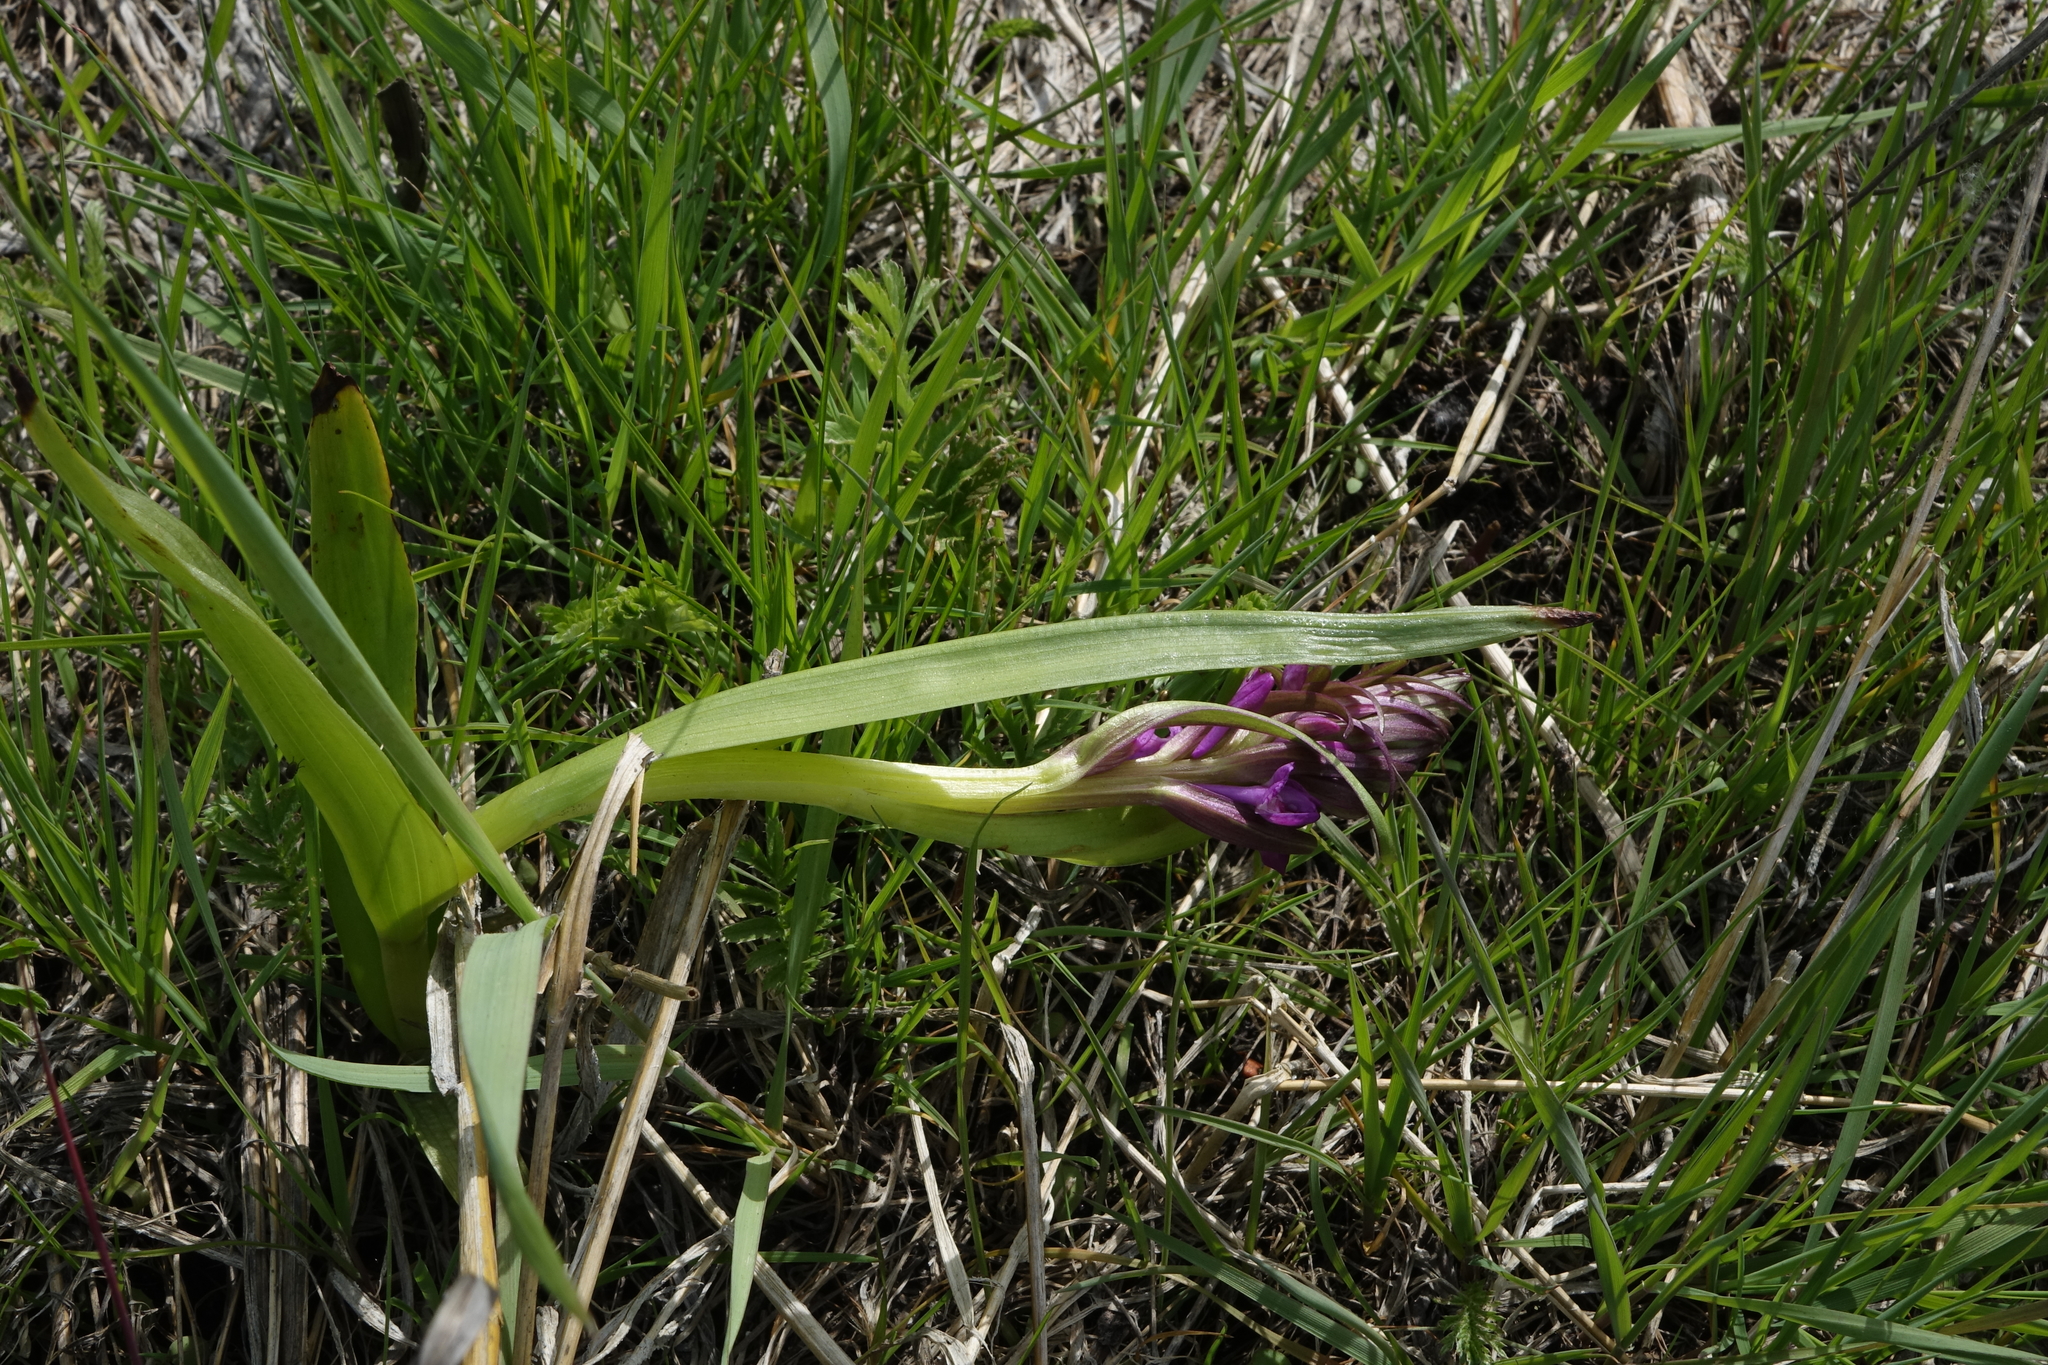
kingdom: Plantae
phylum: Tracheophyta
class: Liliopsida
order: Asparagales
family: Orchidaceae
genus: Dactylorhiza
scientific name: Dactylorhiza incarnata
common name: Early marsh-orchid
